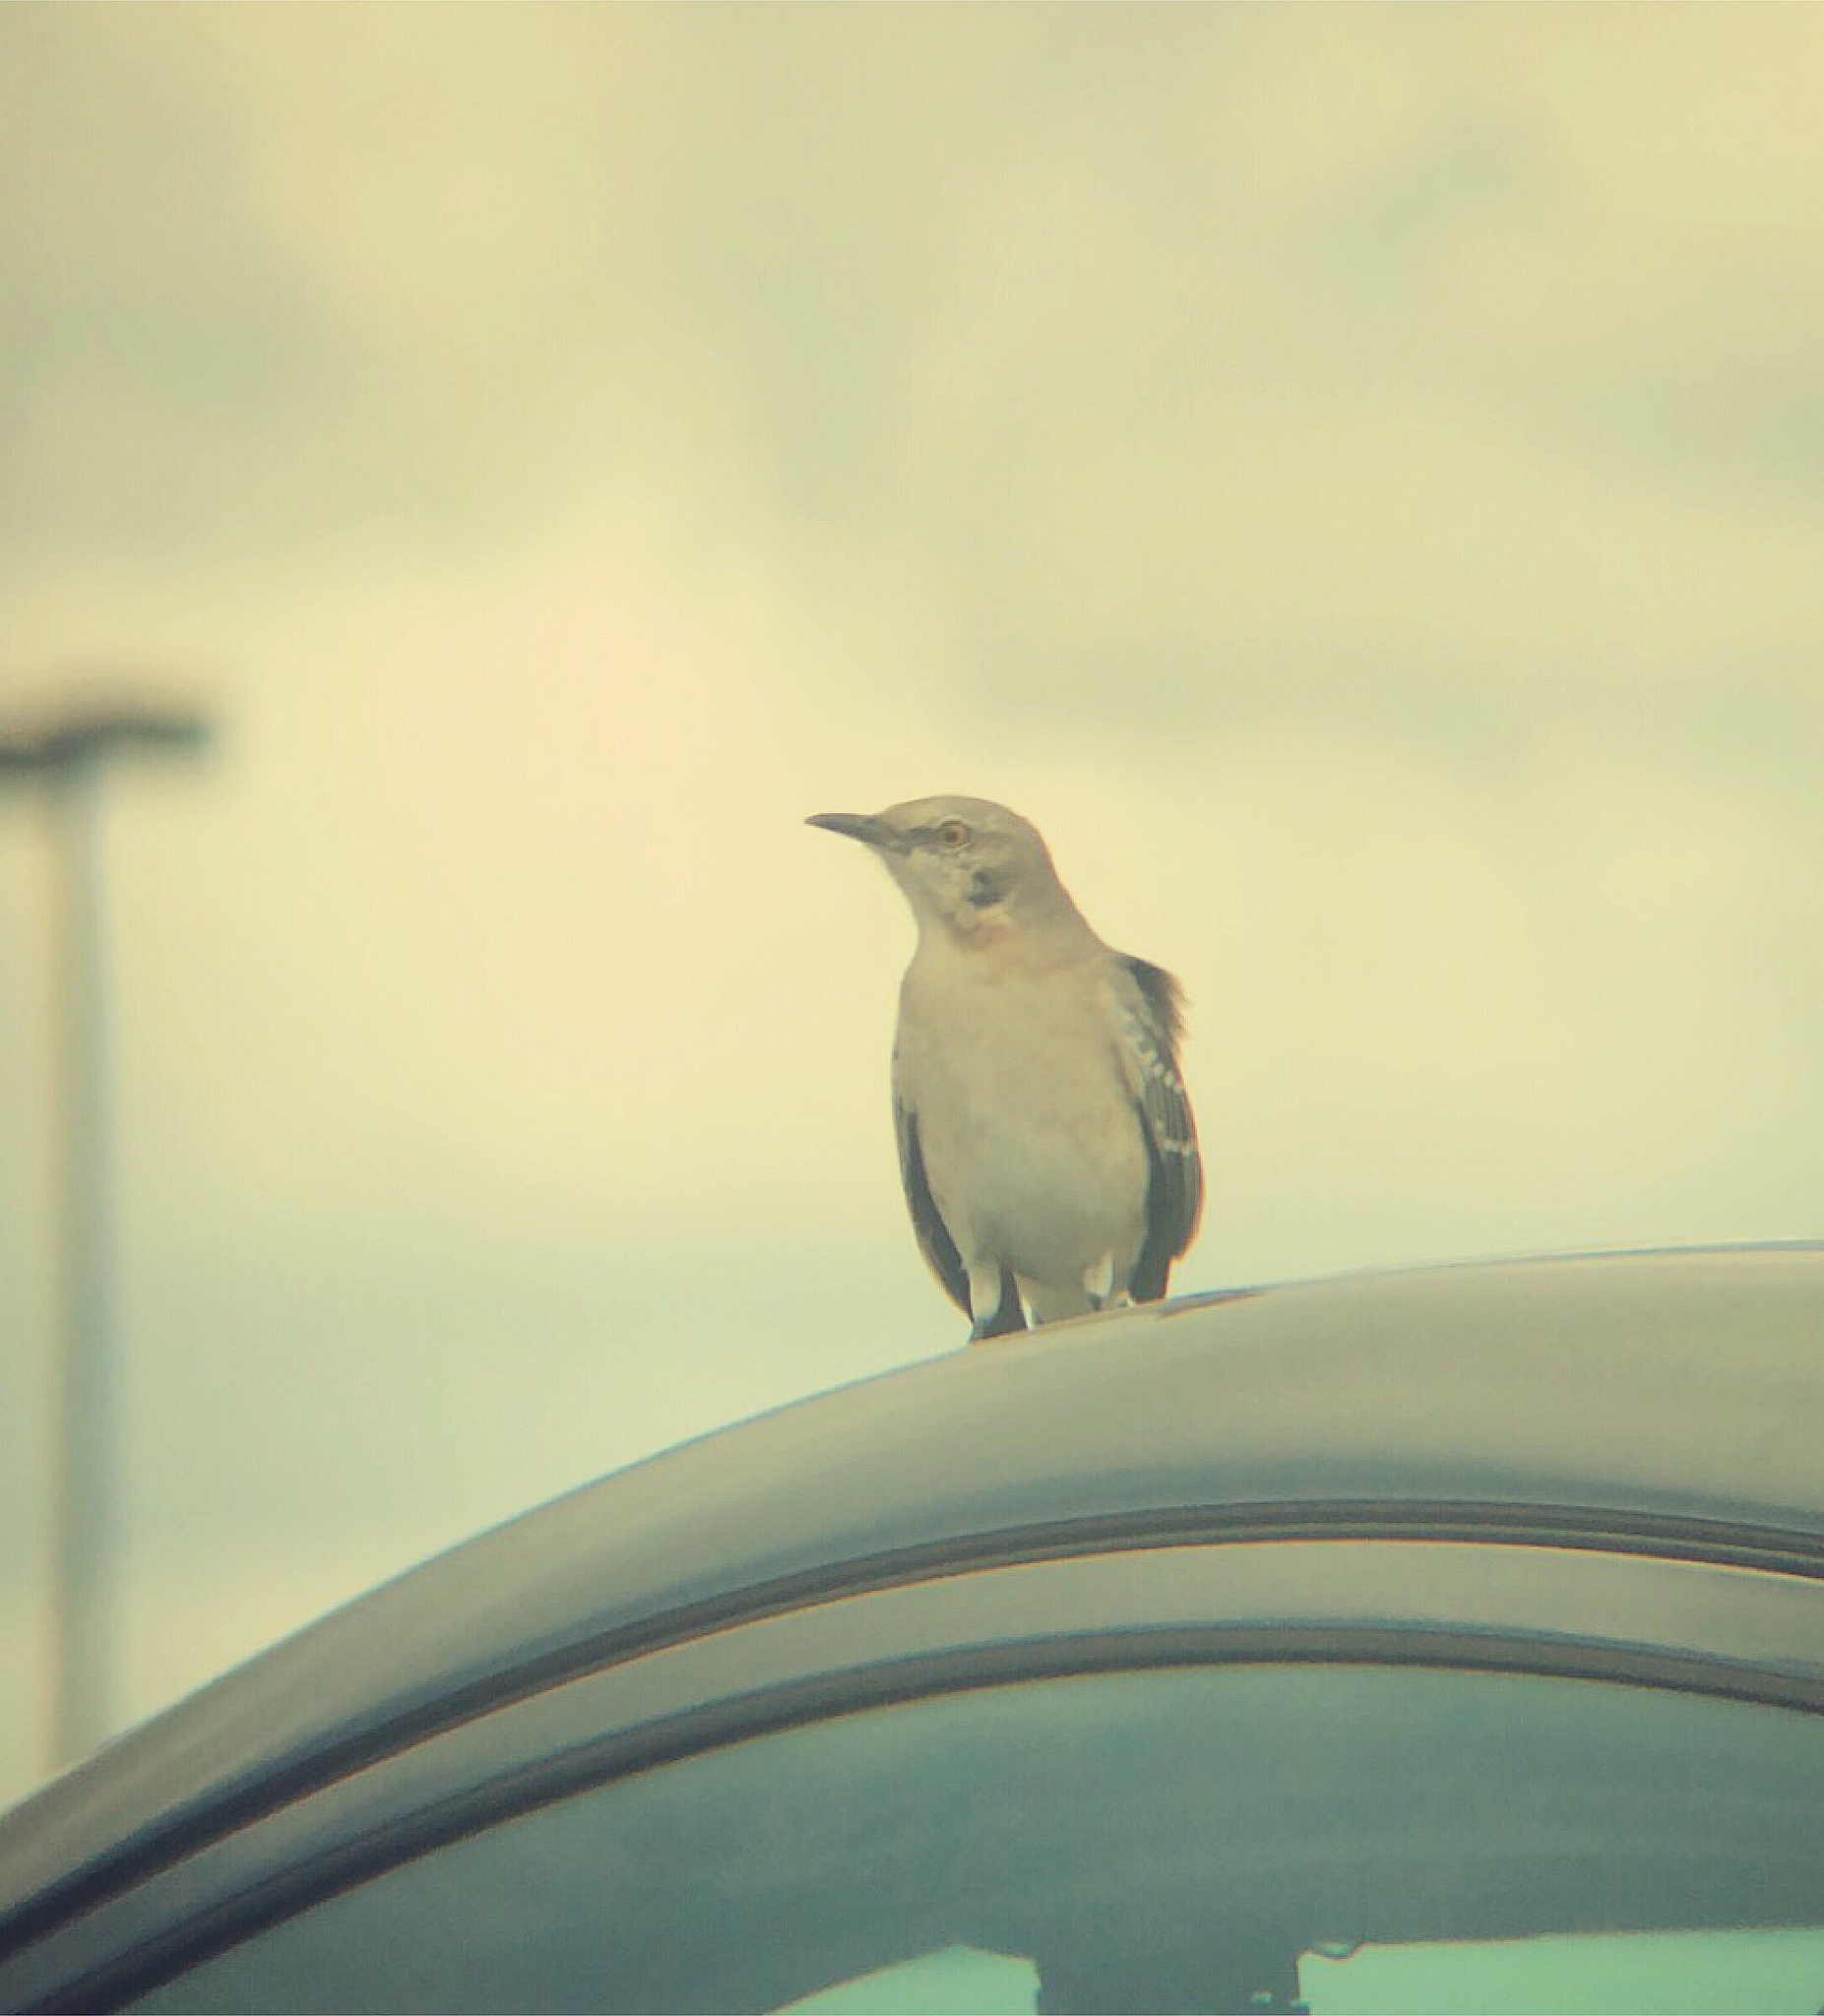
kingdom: Animalia
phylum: Chordata
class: Aves
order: Passeriformes
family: Mimidae
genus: Mimus
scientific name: Mimus polyglottos
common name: Northern mockingbird
